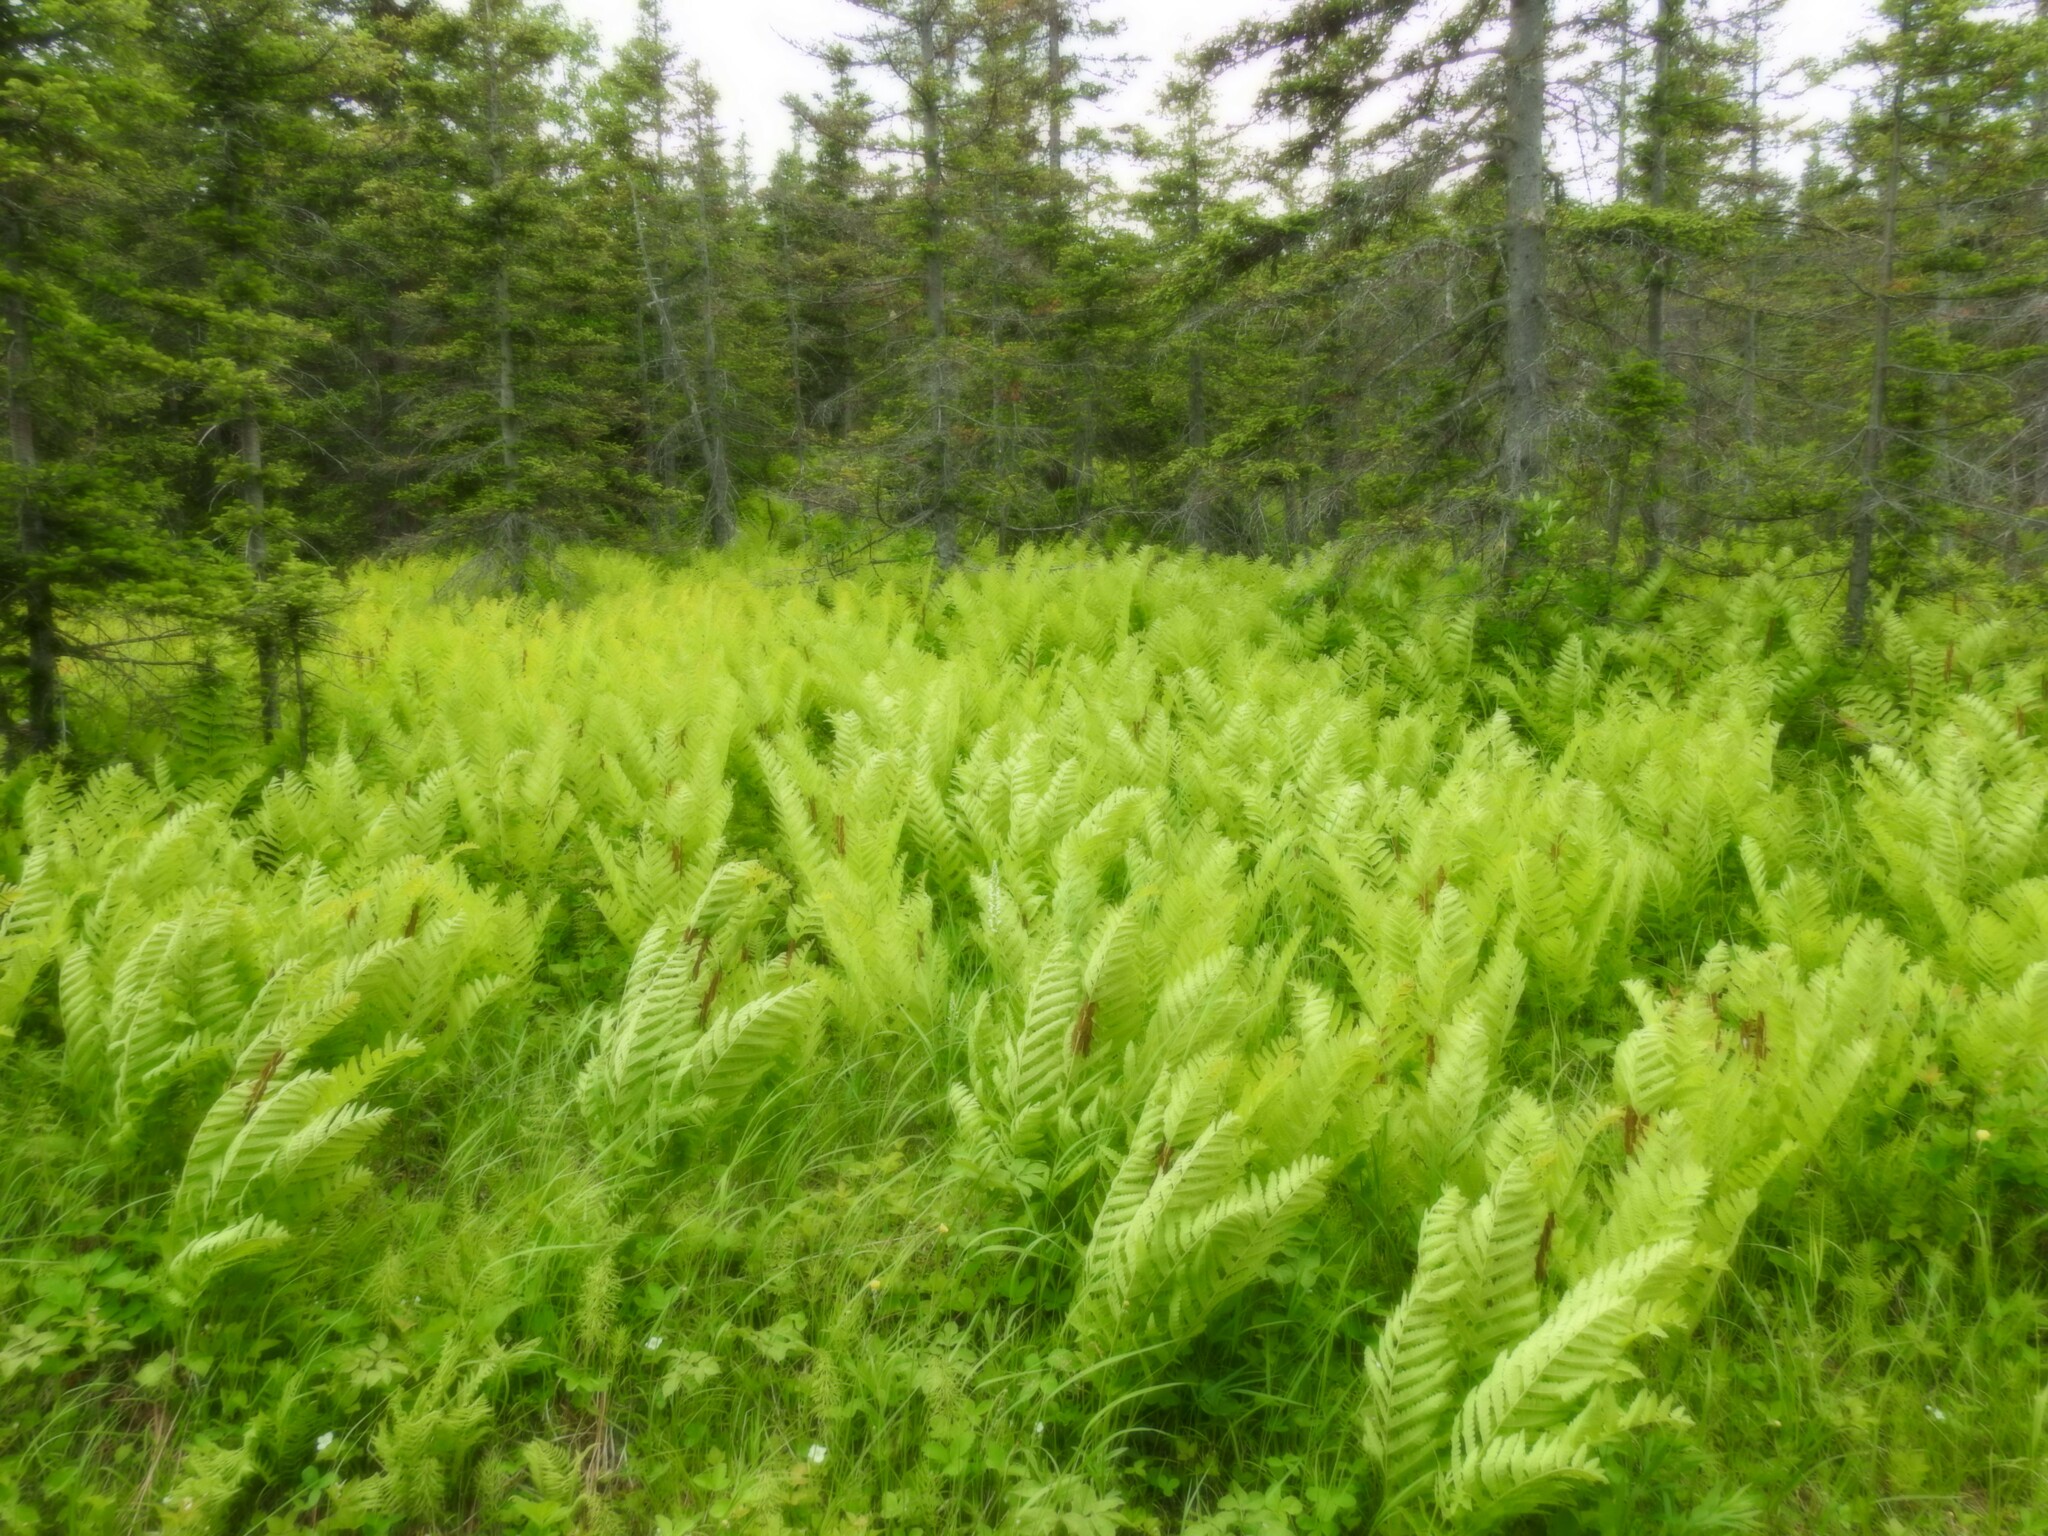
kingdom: Plantae
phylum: Tracheophyta
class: Polypodiopsida
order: Osmundales
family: Osmundaceae
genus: Claytosmunda
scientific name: Claytosmunda claytoniana
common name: Clayton's fern
